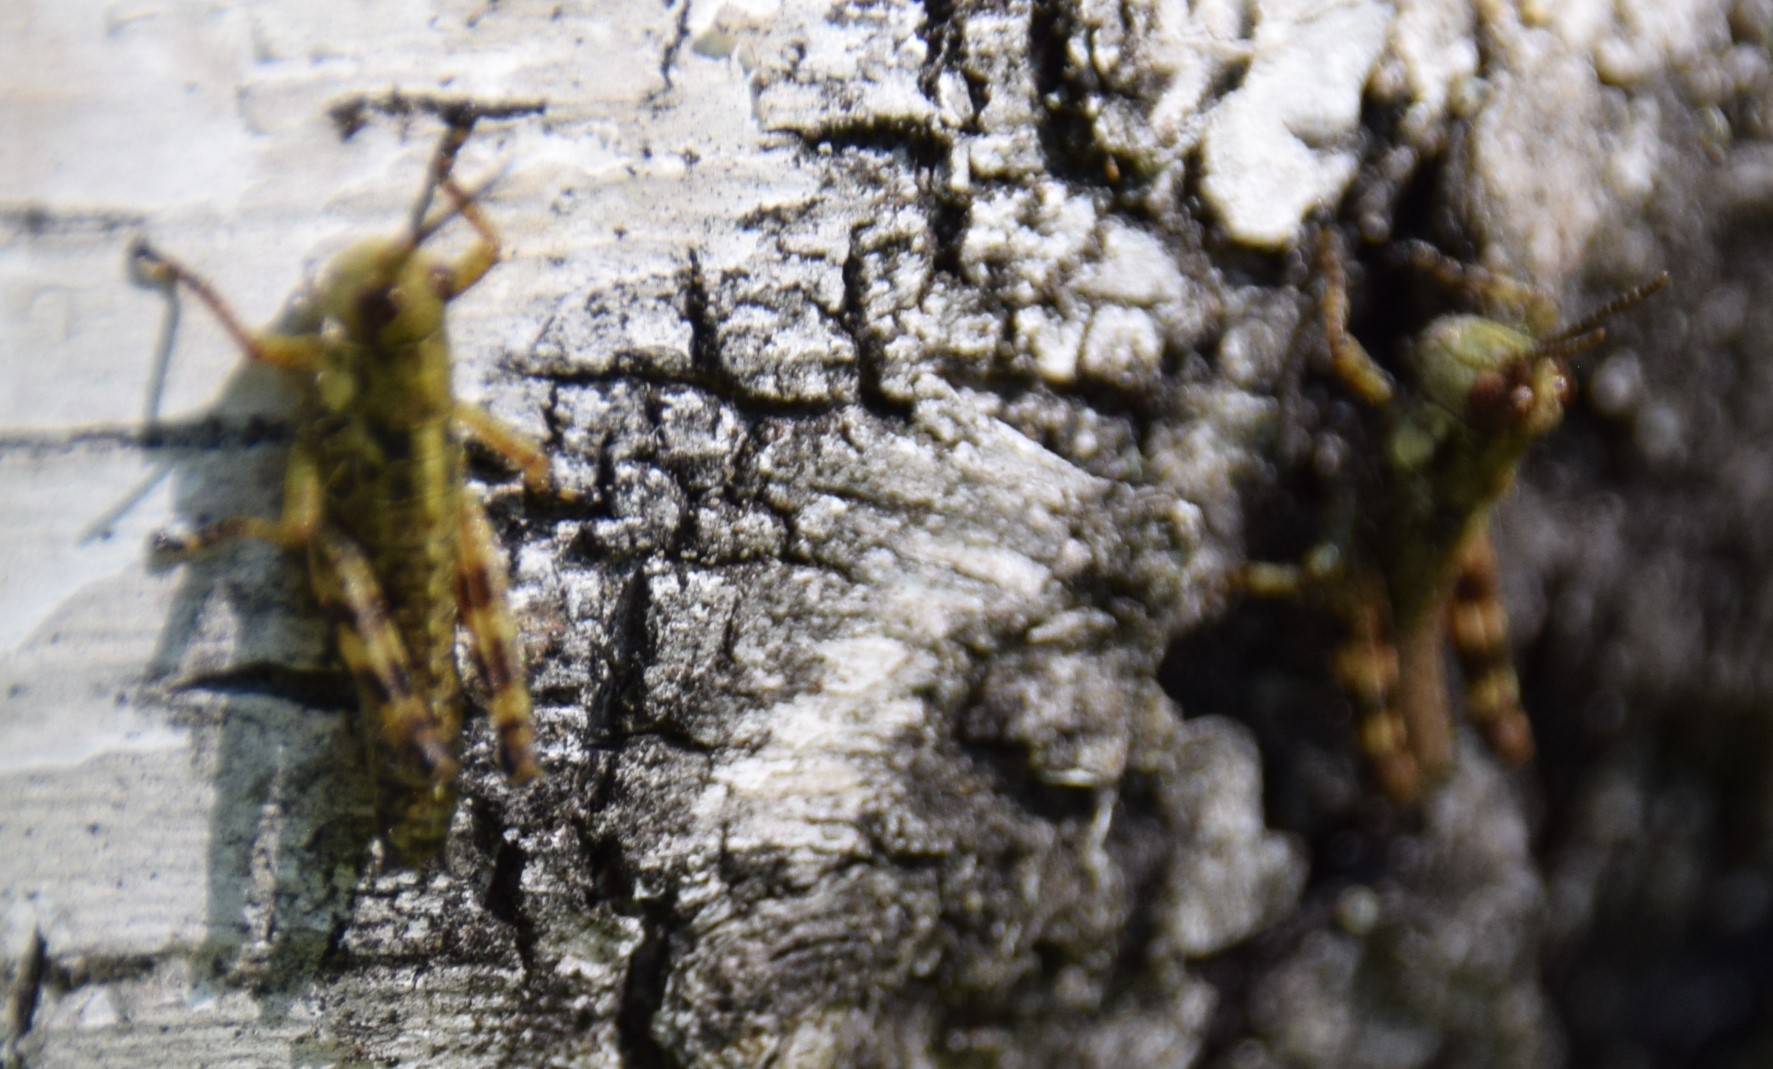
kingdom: Animalia
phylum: Arthropoda
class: Insecta
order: Orthoptera
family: Acrididae
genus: Booneacris
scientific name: Booneacris glacialis
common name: Wingless mountain grasshopper
